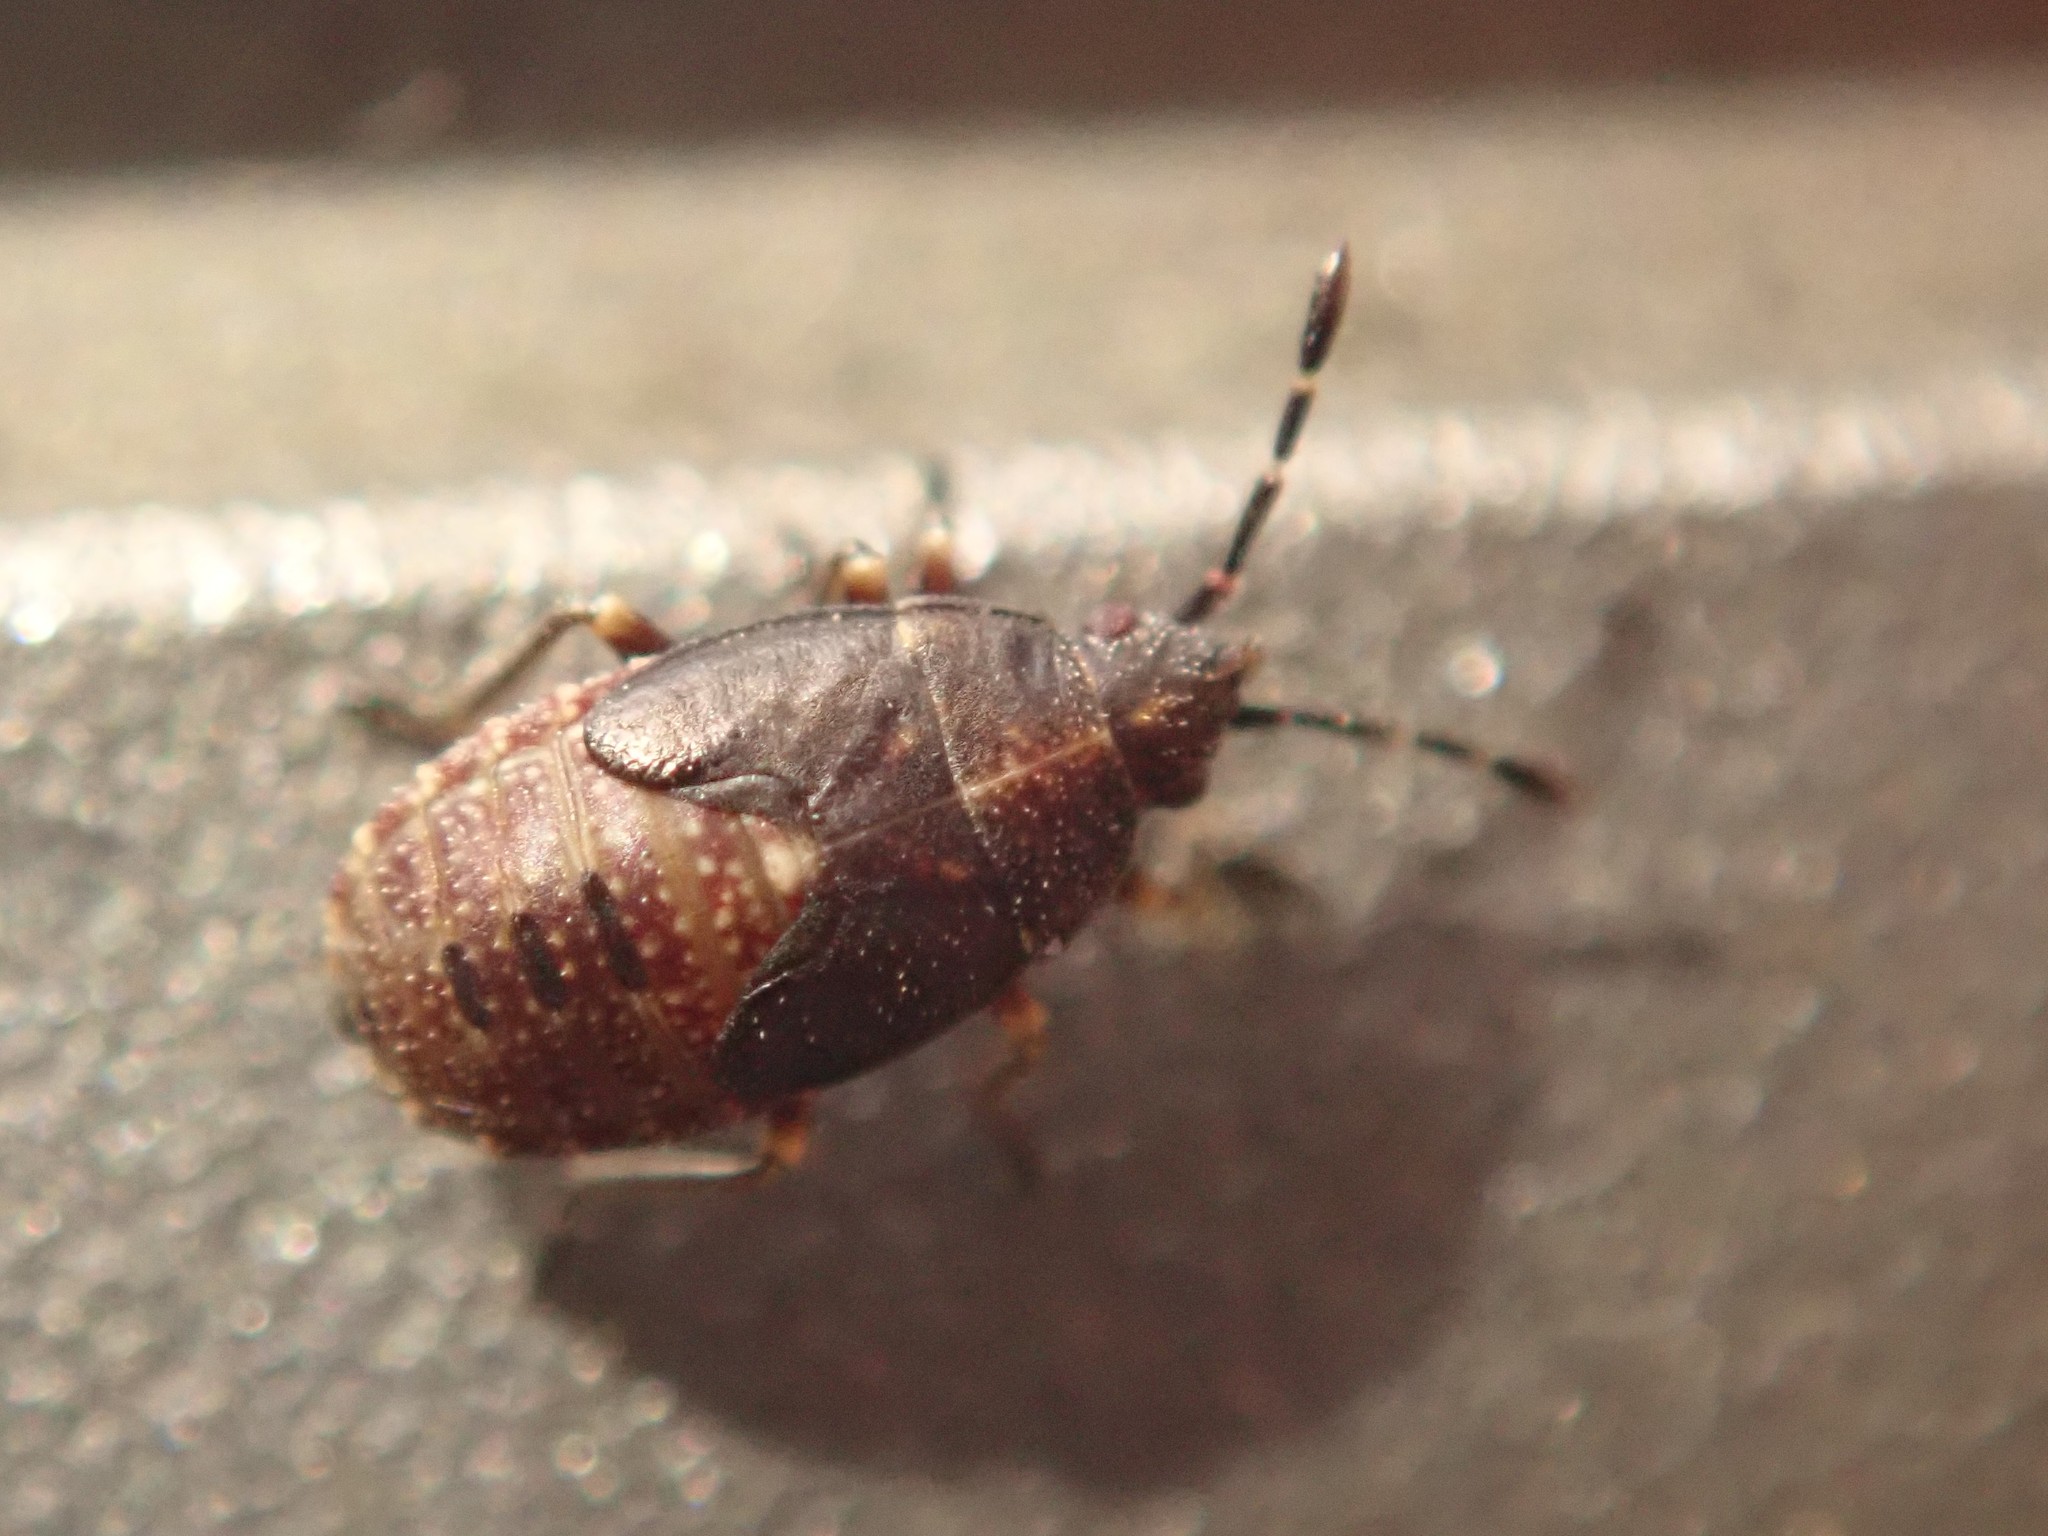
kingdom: Animalia
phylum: Arthropoda
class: Insecta
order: Hemiptera
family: Lygaeidae
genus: Kleidocerys
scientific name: Kleidocerys resedae
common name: Birch catkin bug
